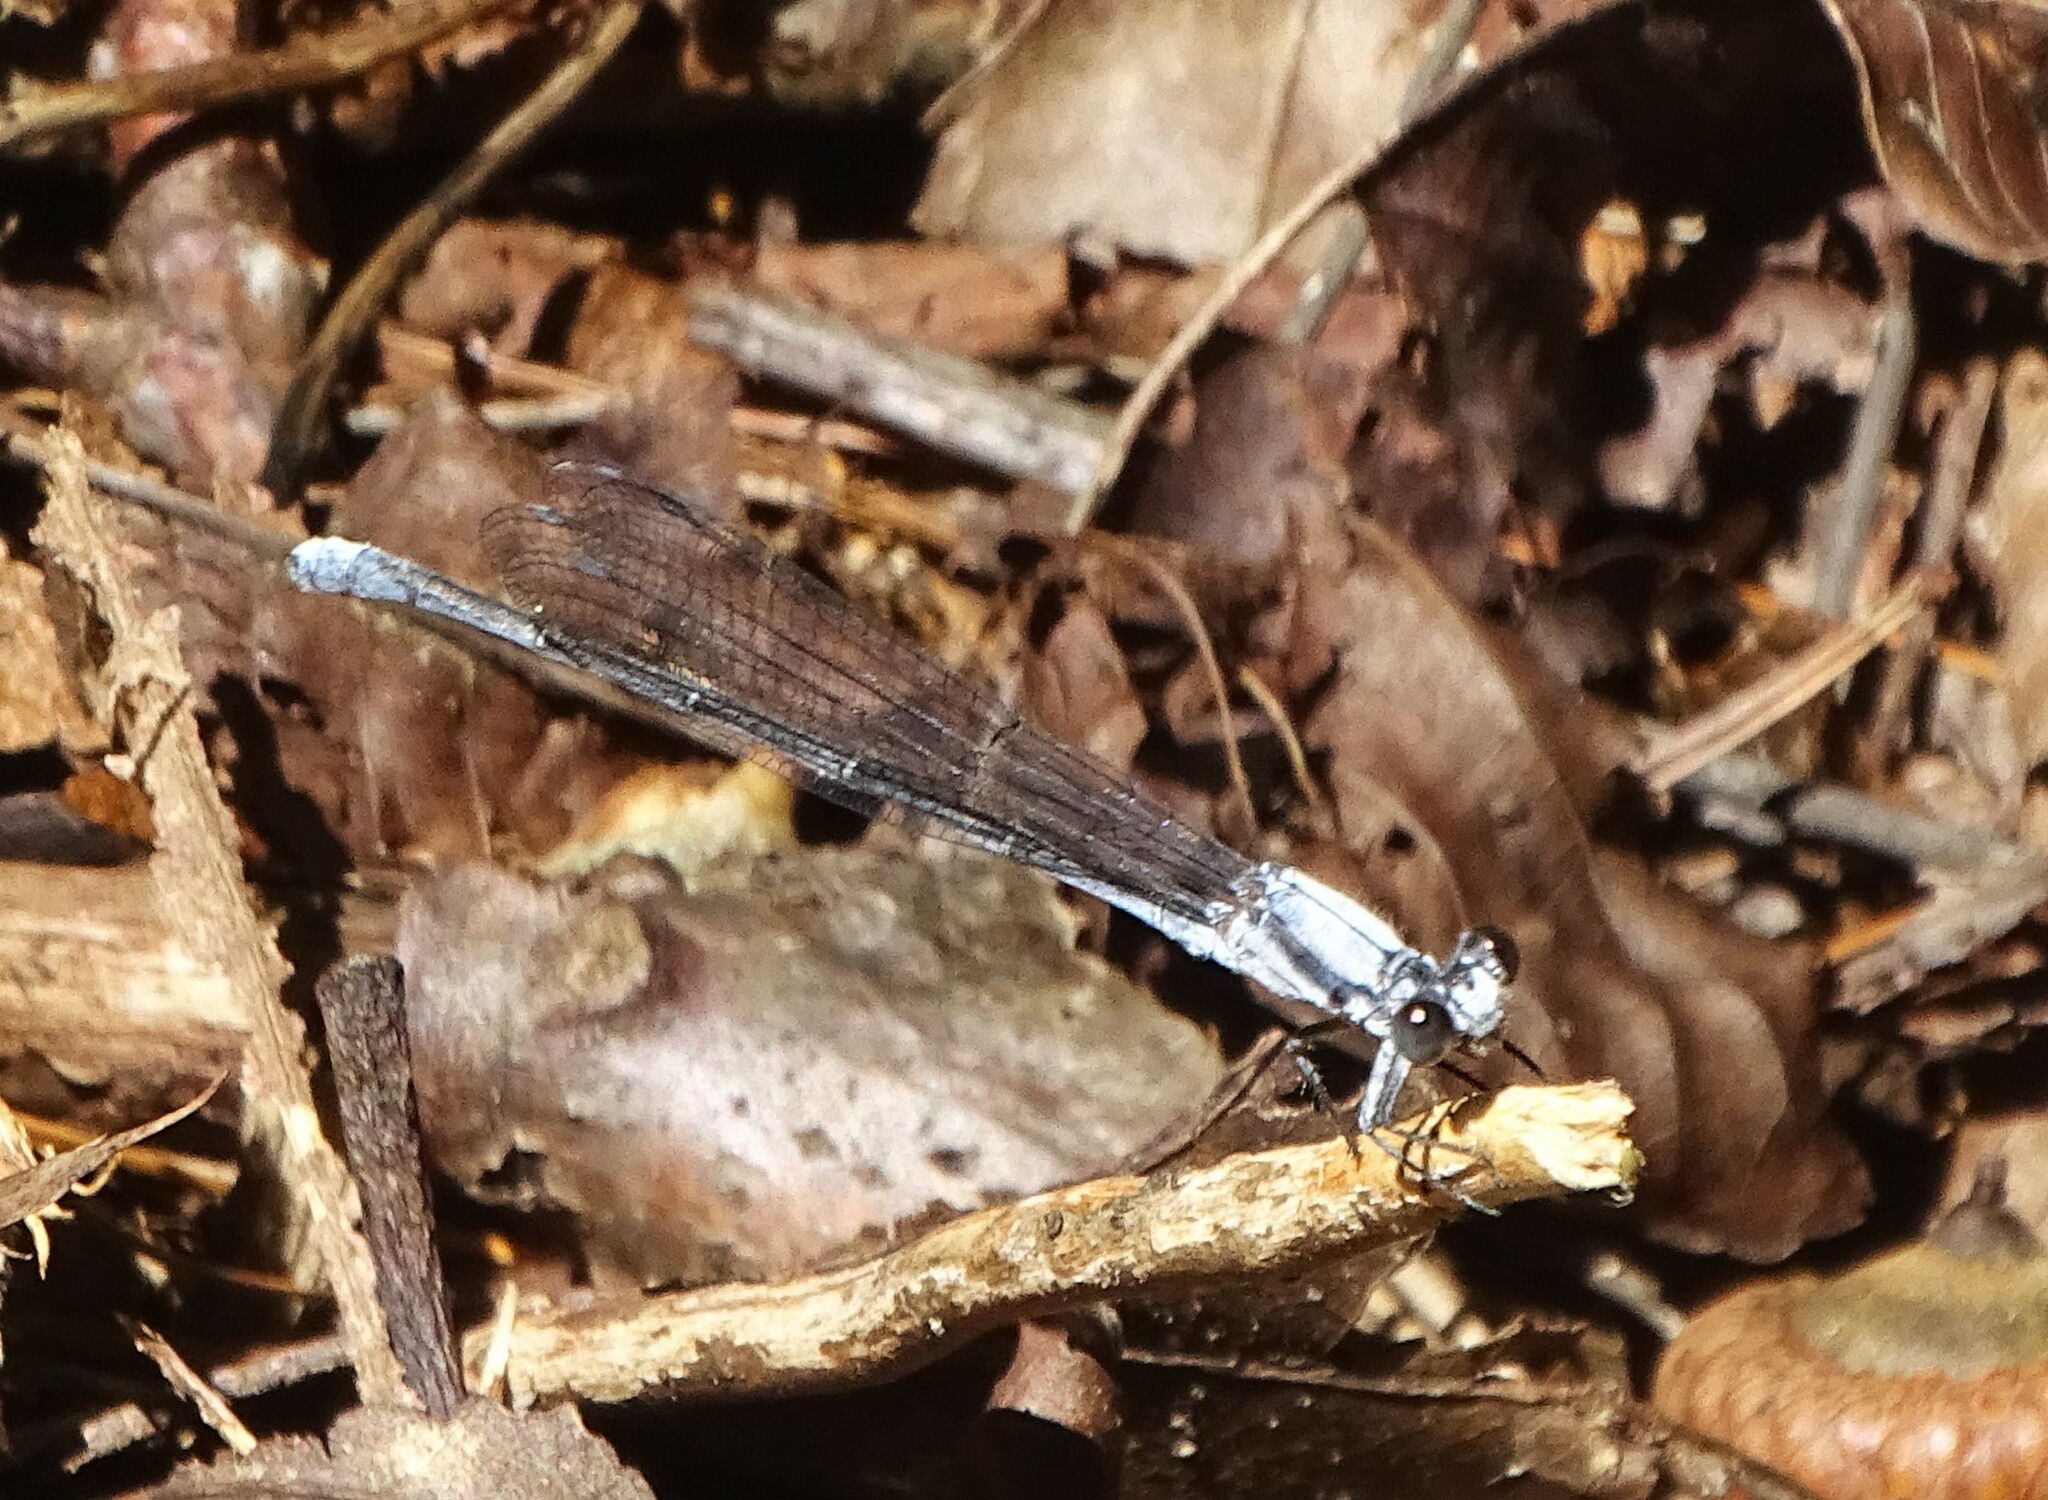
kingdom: Animalia
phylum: Arthropoda
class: Insecta
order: Odonata
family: Coenagrionidae
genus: Argia
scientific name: Argia moesta
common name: Powdered dancer
